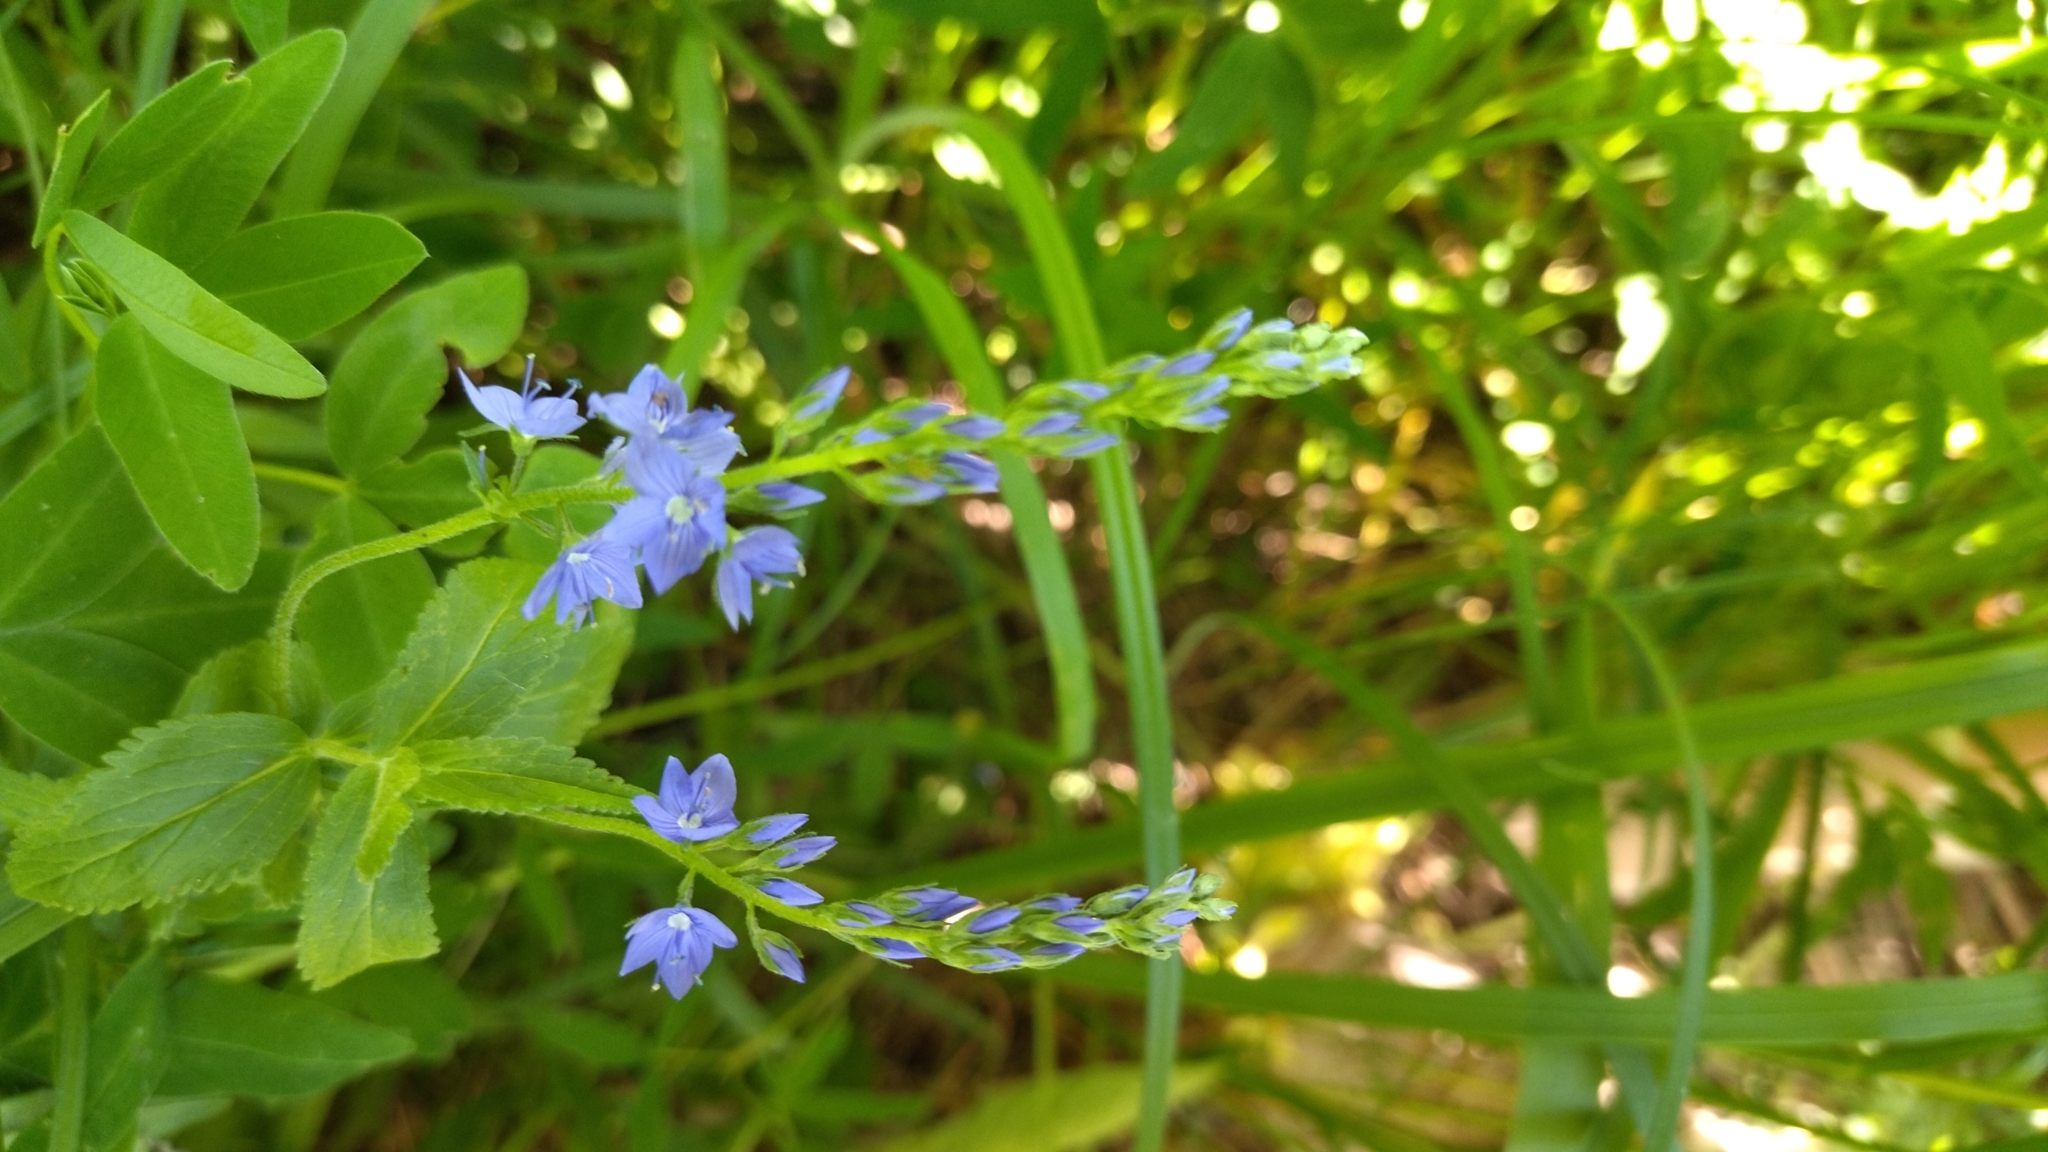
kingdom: Plantae
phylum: Tracheophyta
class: Magnoliopsida
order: Lamiales
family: Plantaginaceae
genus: Veronica
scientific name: Veronica teucrium
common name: Large speedwell
